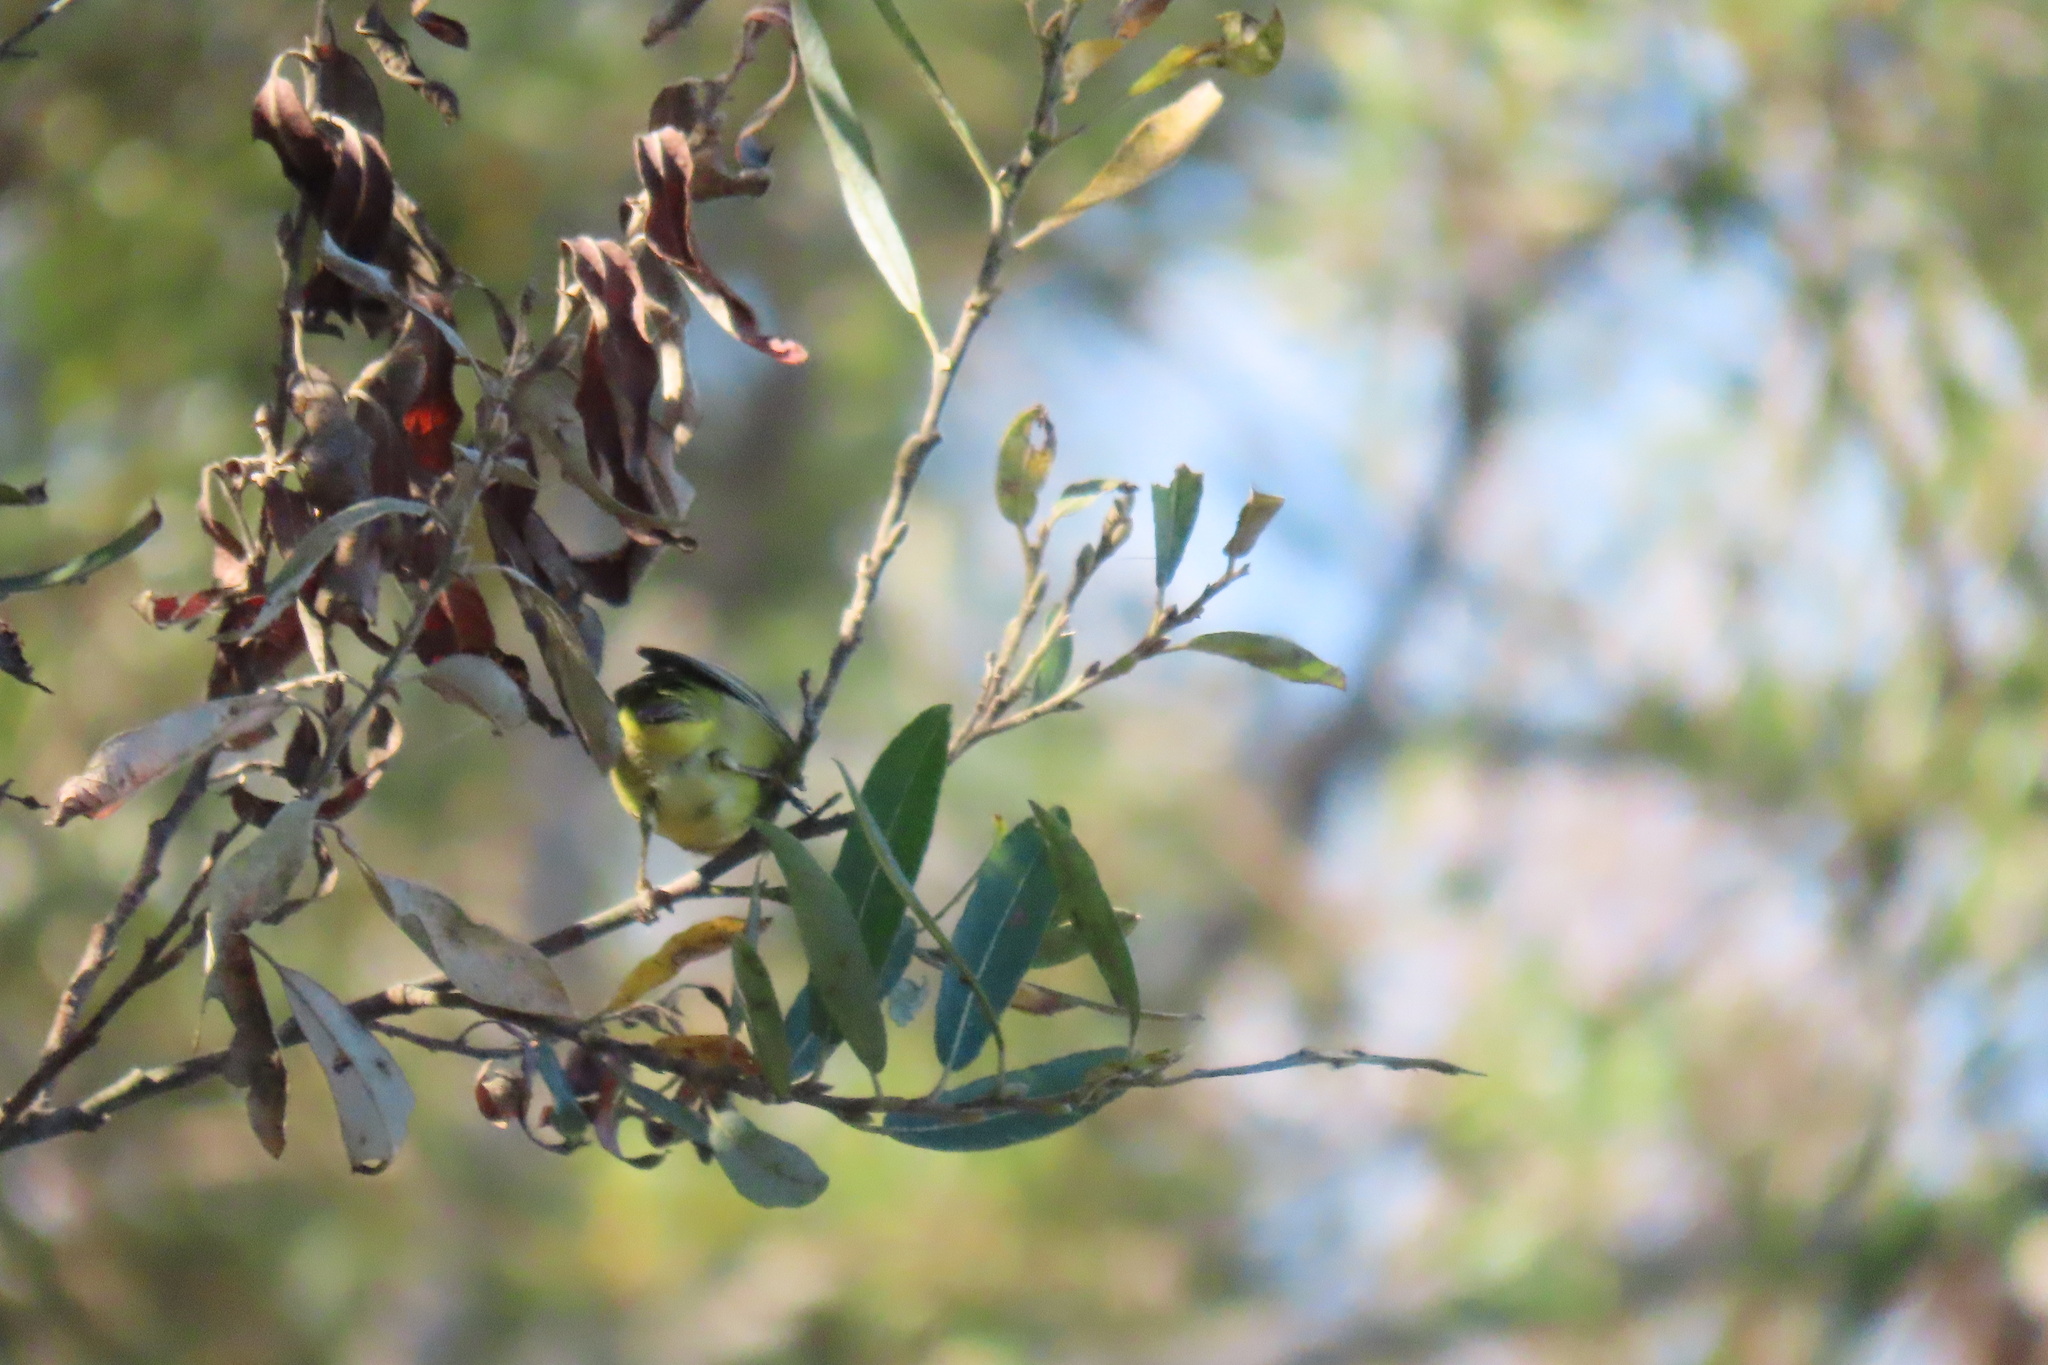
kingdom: Animalia
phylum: Chordata
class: Aves
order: Passeriformes
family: Parulidae
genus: Leiothlypis
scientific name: Leiothlypis celata
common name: Orange-crowned warbler
